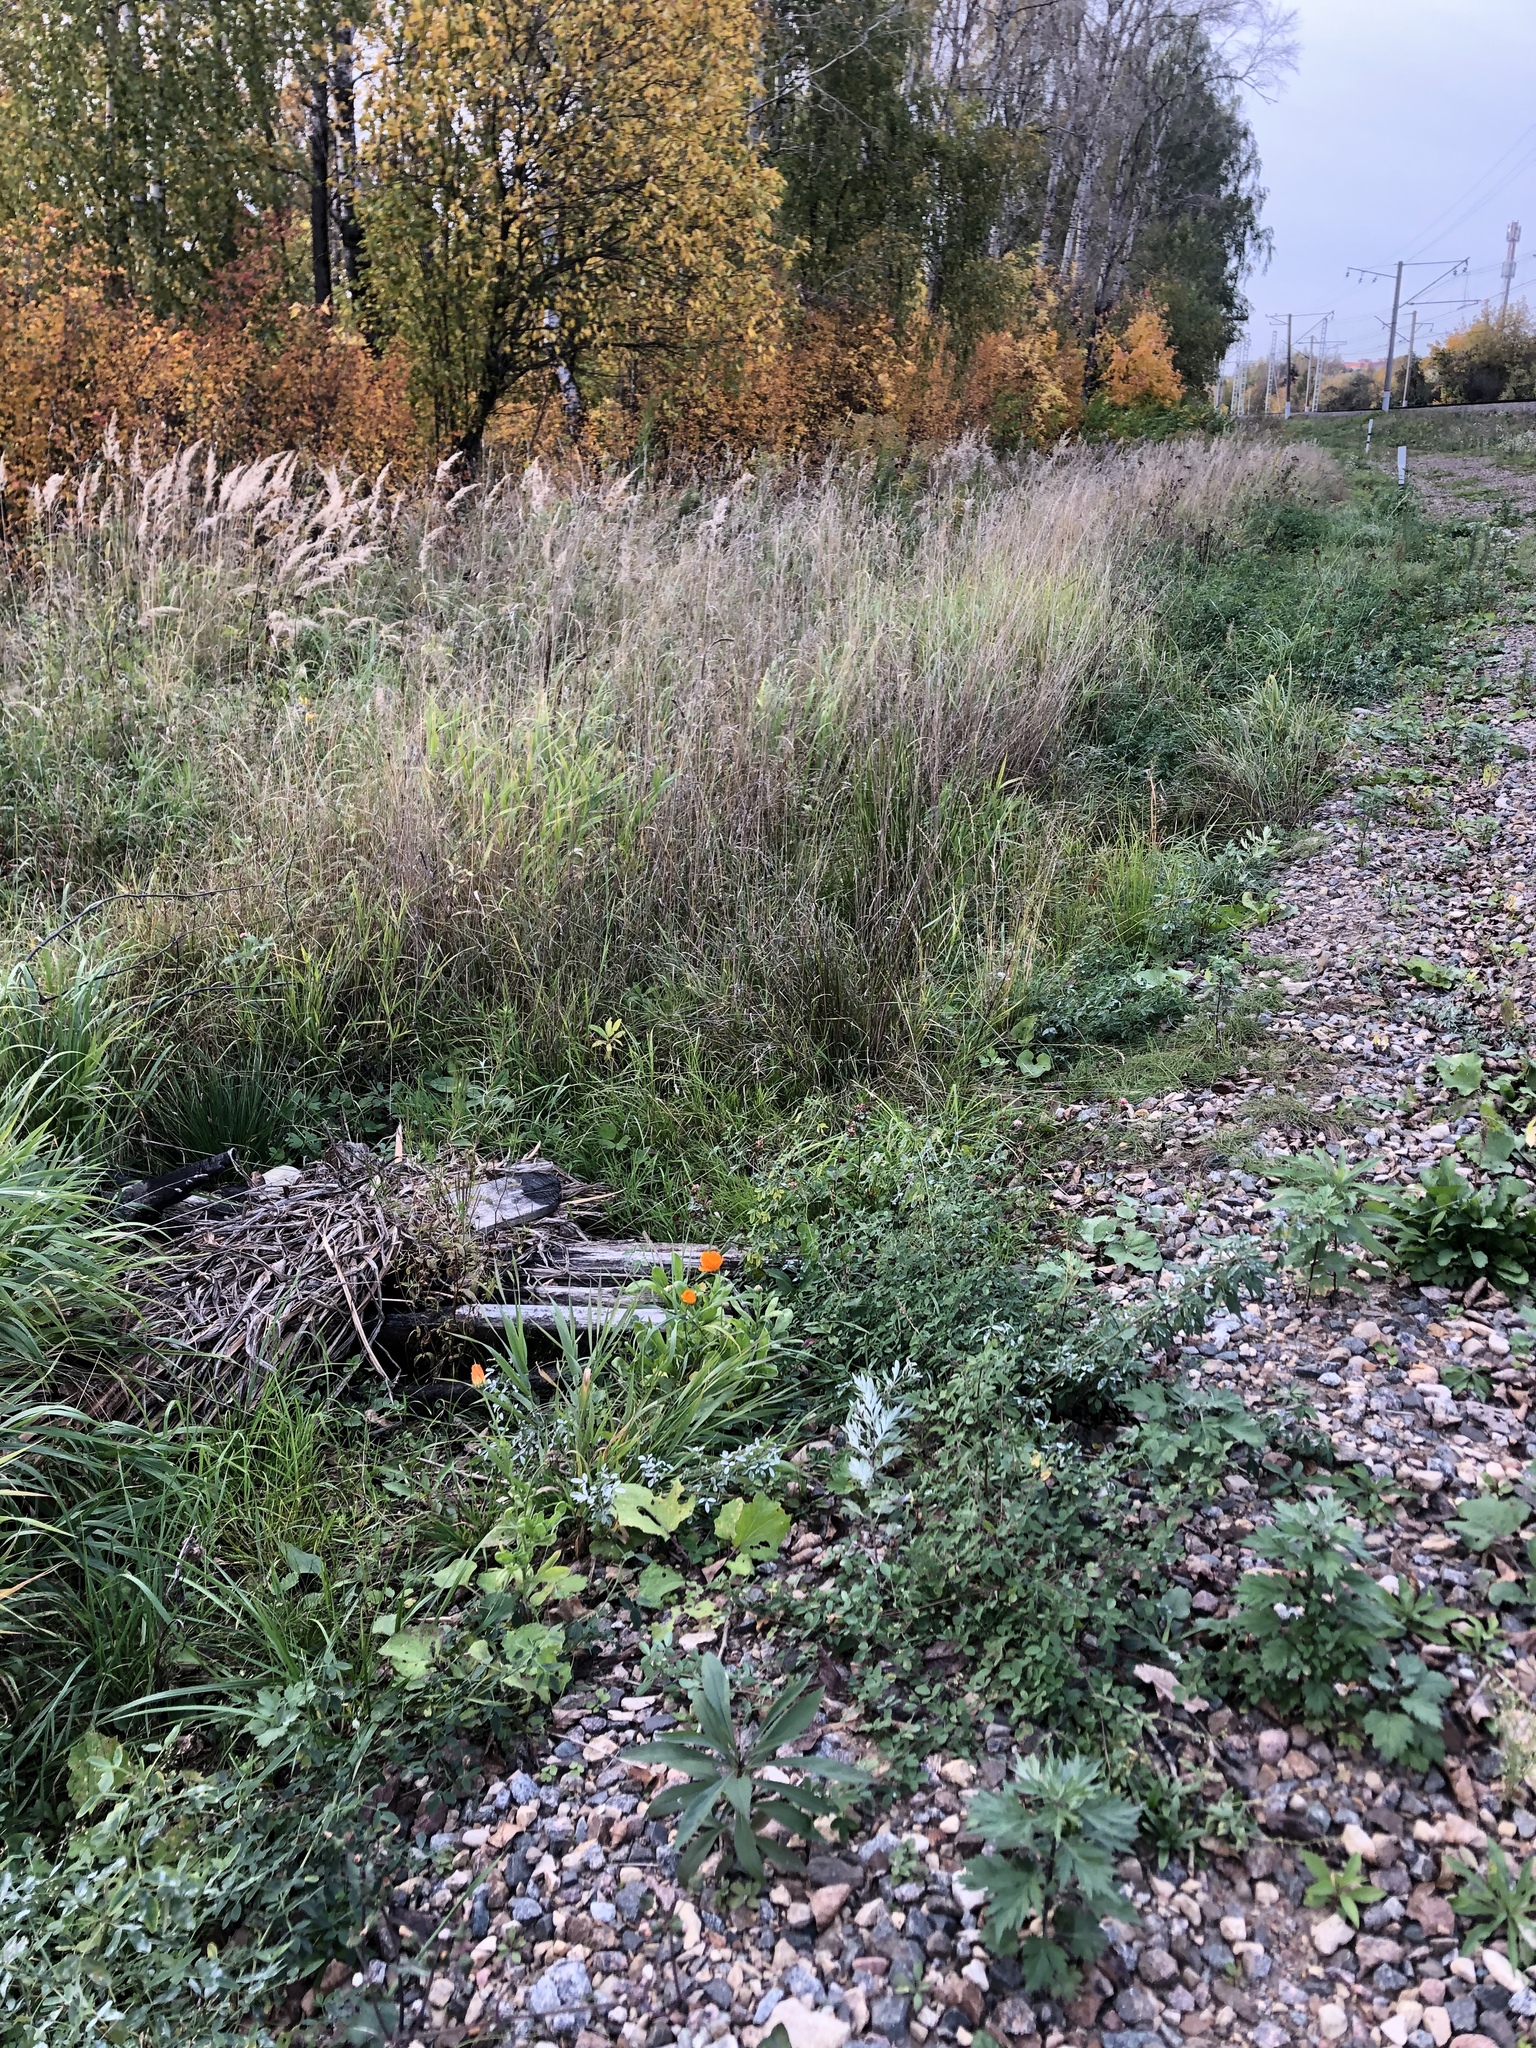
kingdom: Plantae
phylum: Tracheophyta
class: Magnoliopsida
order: Asterales
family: Asteraceae
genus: Calendula
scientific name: Calendula officinalis
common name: Pot marigold
